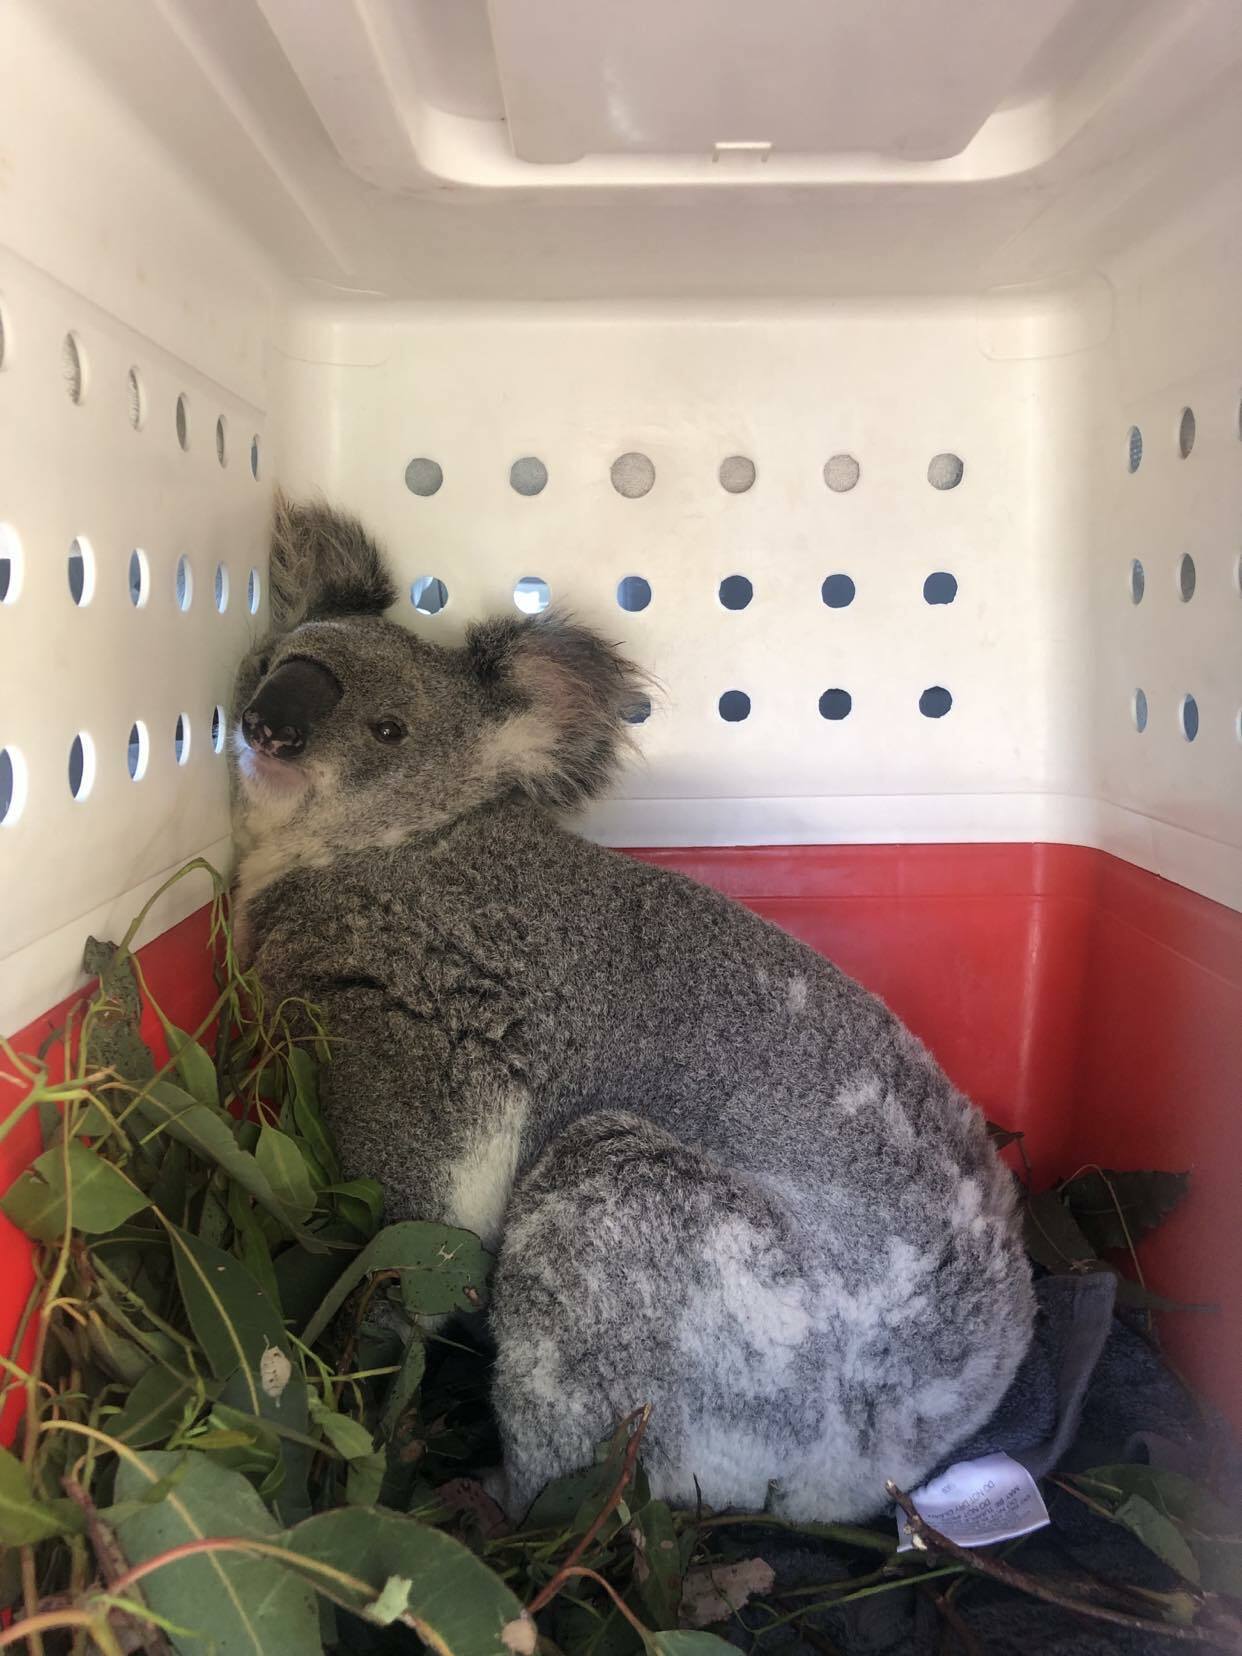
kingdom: Animalia
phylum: Chordata
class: Mammalia
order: Diprotodontia
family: Phascolarctidae
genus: Phascolarctos
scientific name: Phascolarctos cinereus
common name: Koala
